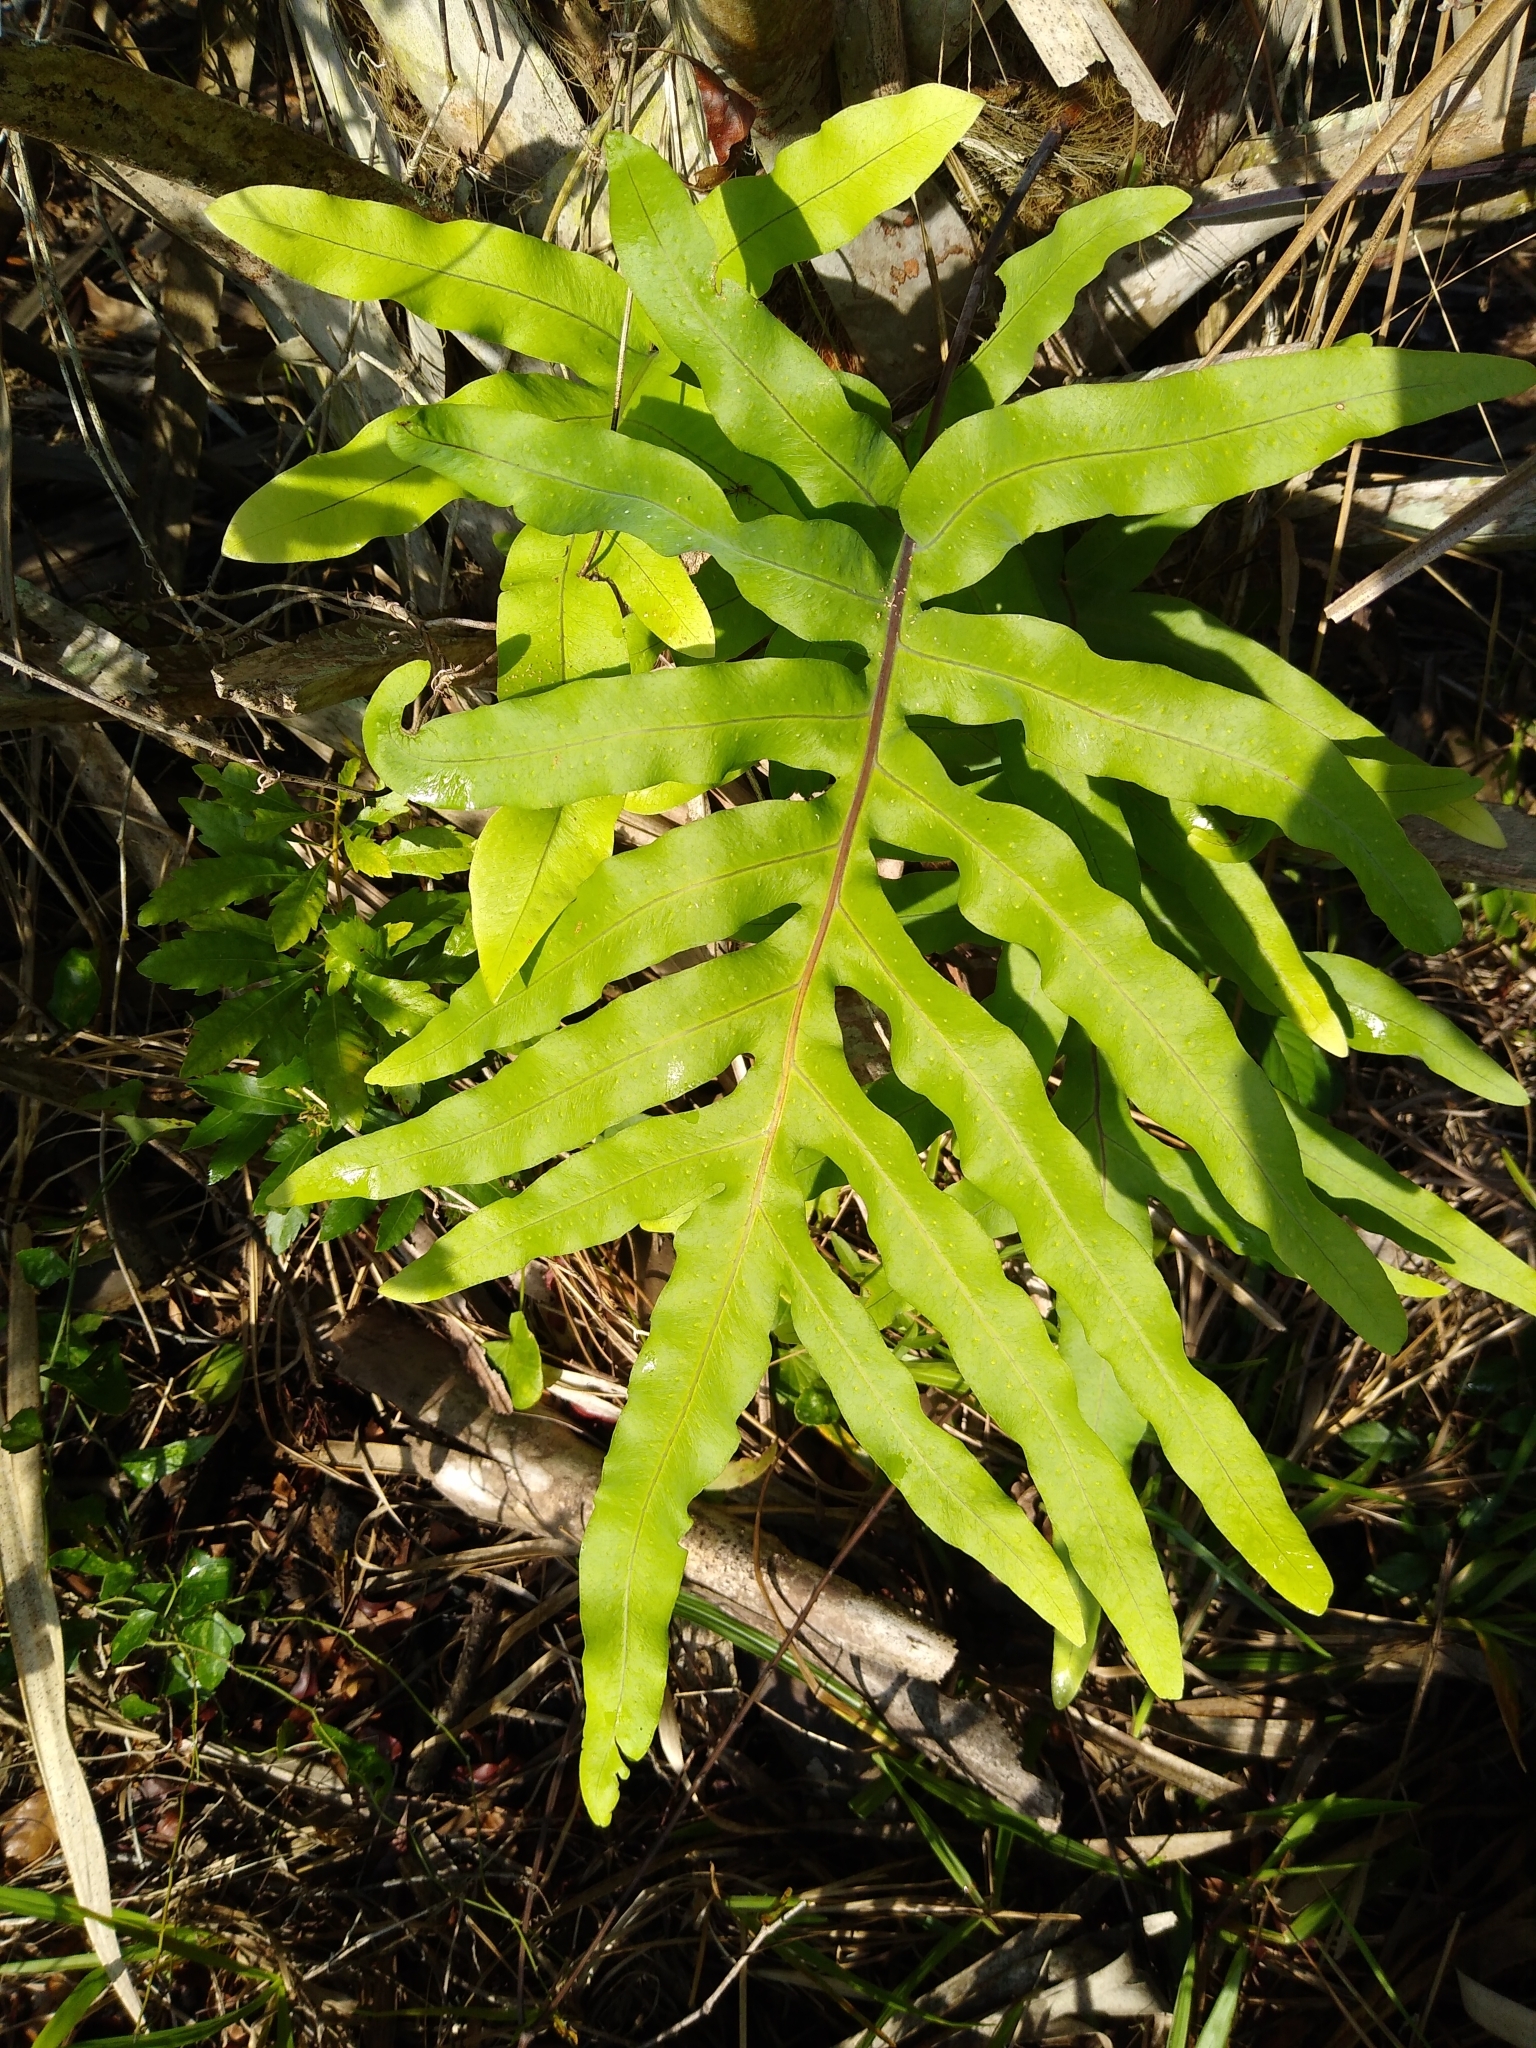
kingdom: Plantae
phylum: Tracheophyta
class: Polypodiopsida
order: Polypodiales
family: Polypodiaceae
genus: Phlebodium
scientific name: Phlebodium aureum
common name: Gold-foot fern
